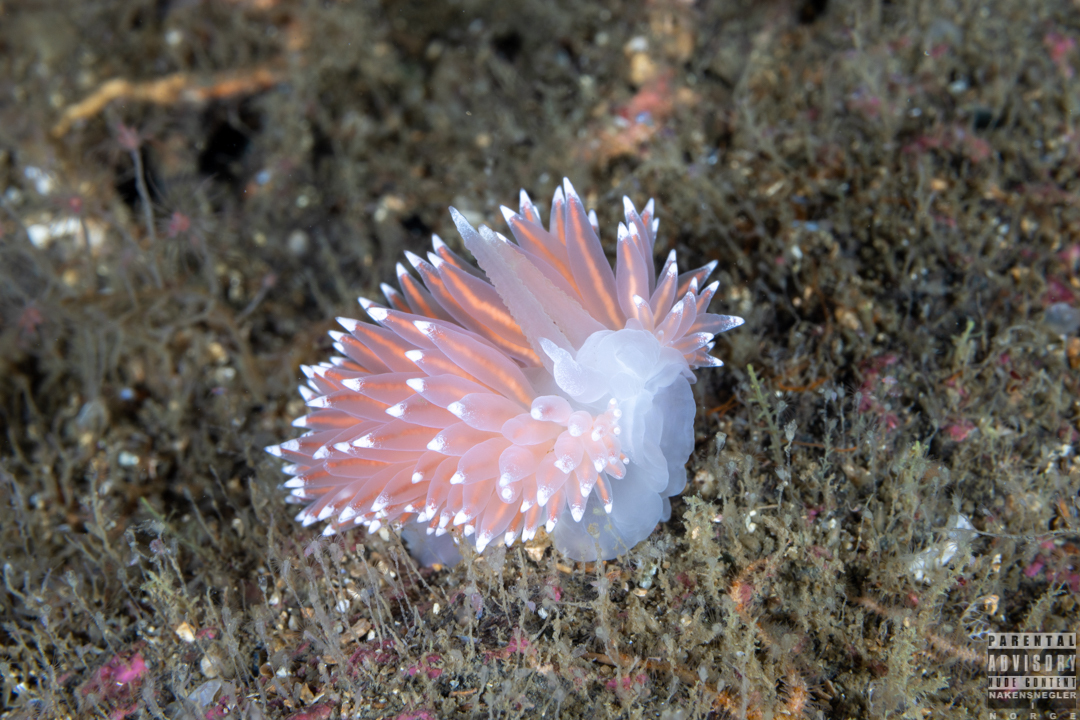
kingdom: Animalia
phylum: Mollusca
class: Gastropoda
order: Nudibranchia
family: Coryphellidae
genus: Coryphella
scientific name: Coryphella nobilis
